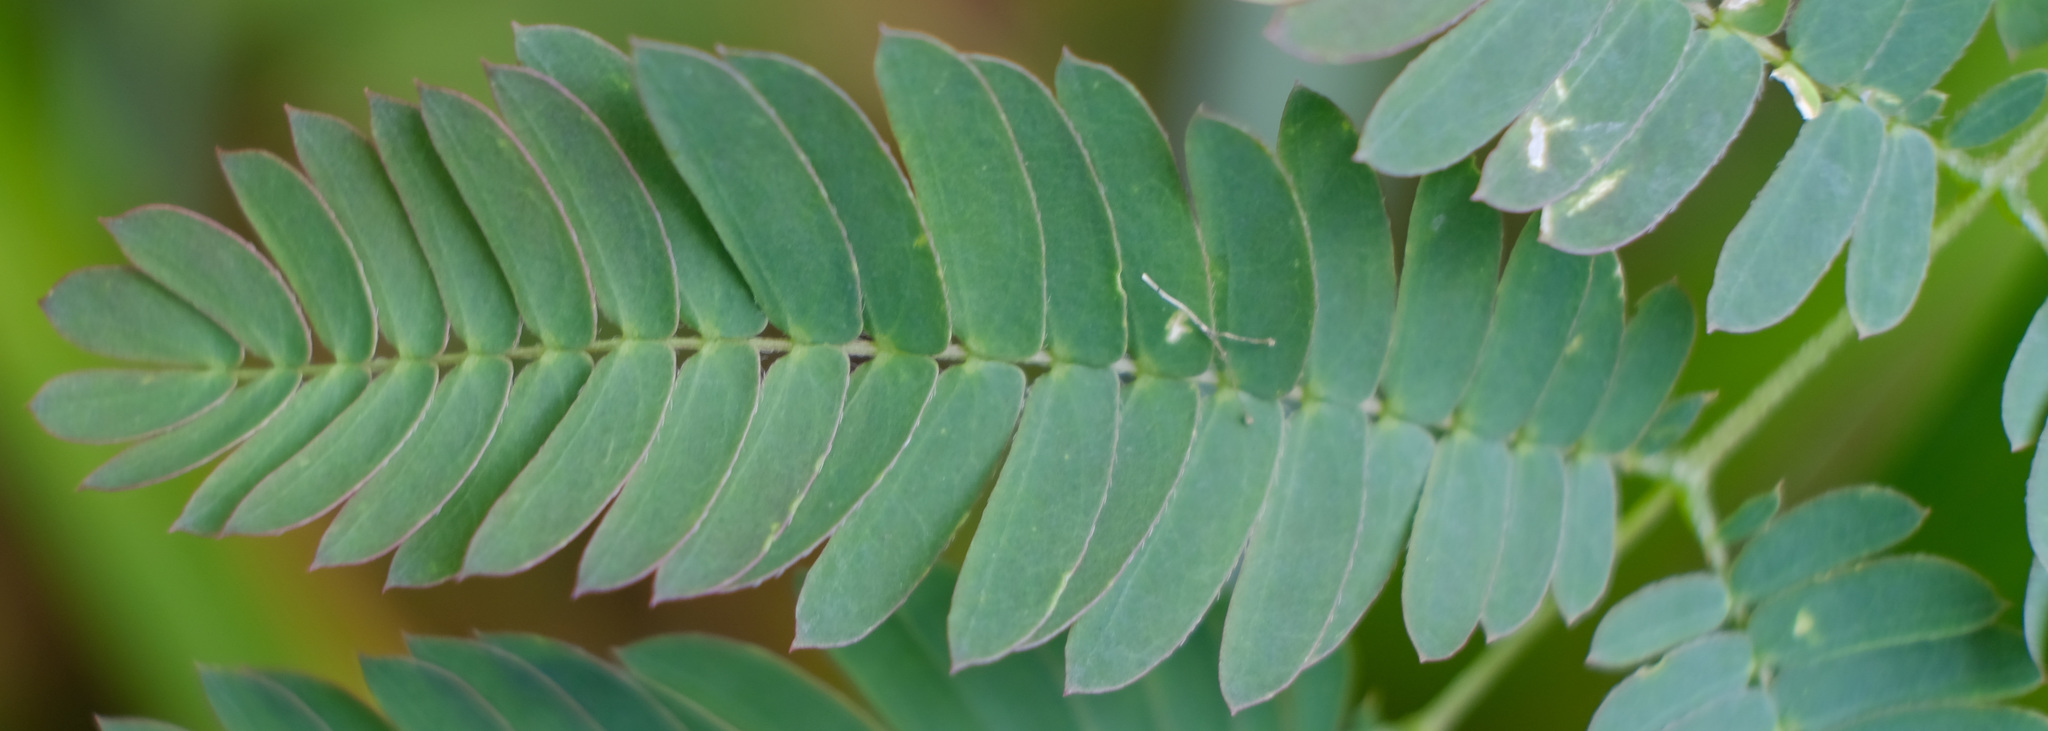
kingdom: Plantae
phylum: Tracheophyta
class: Magnoliopsida
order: Fabales
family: Fabaceae
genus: Albizia
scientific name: Albizia julibrissin
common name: Silktree
